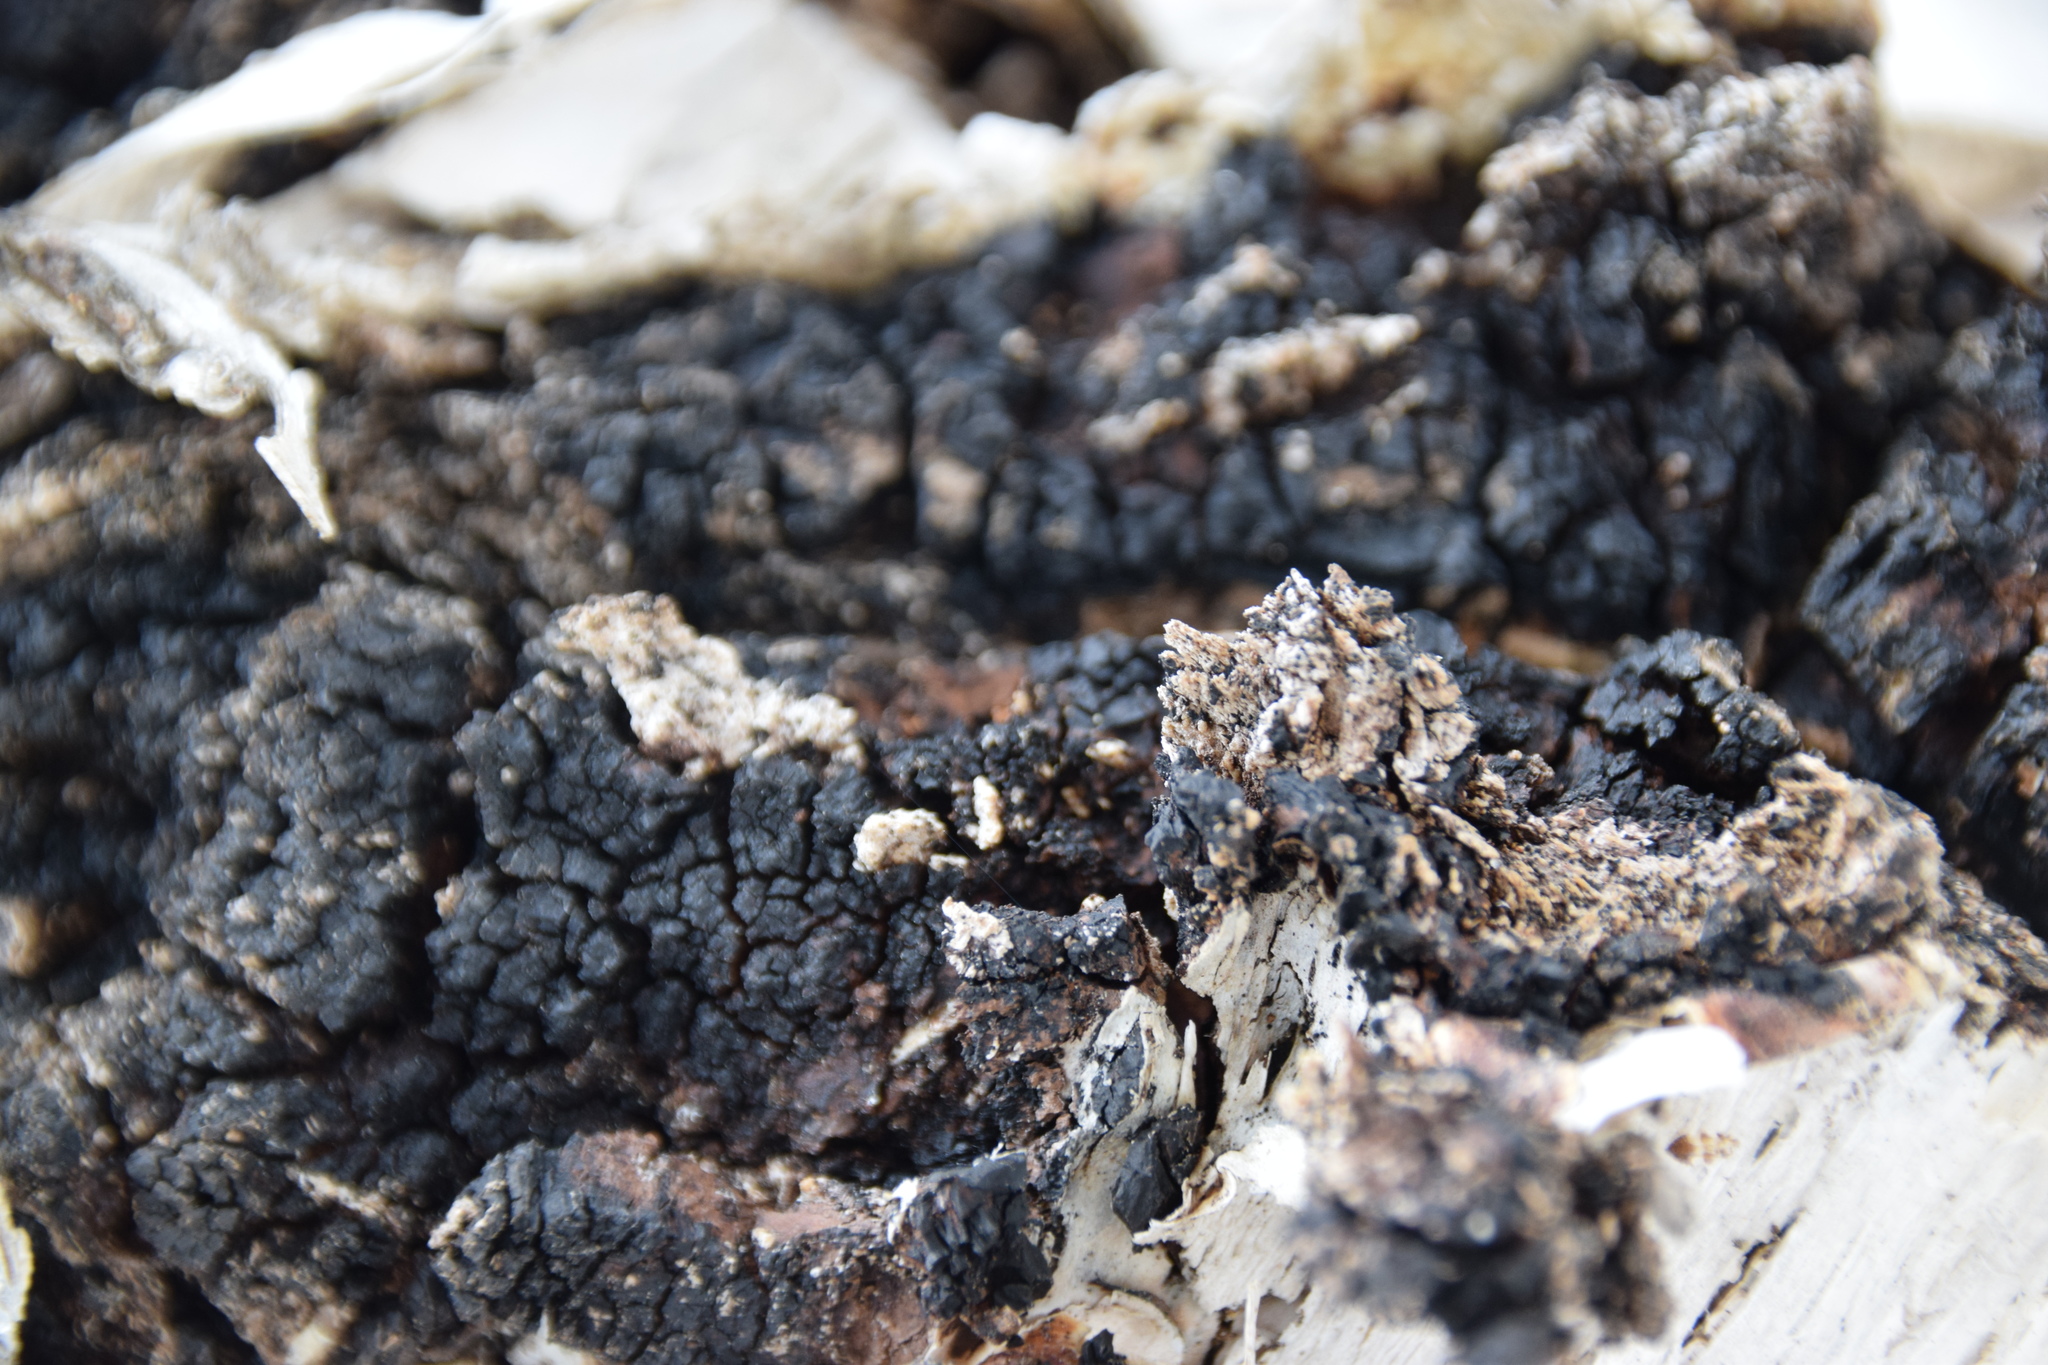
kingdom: Fungi
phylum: Basidiomycota
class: Agaricomycetes
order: Hymenochaetales
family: Hymenochaetaceae
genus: Inonotus
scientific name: Inonotus obliquus
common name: Chaga
